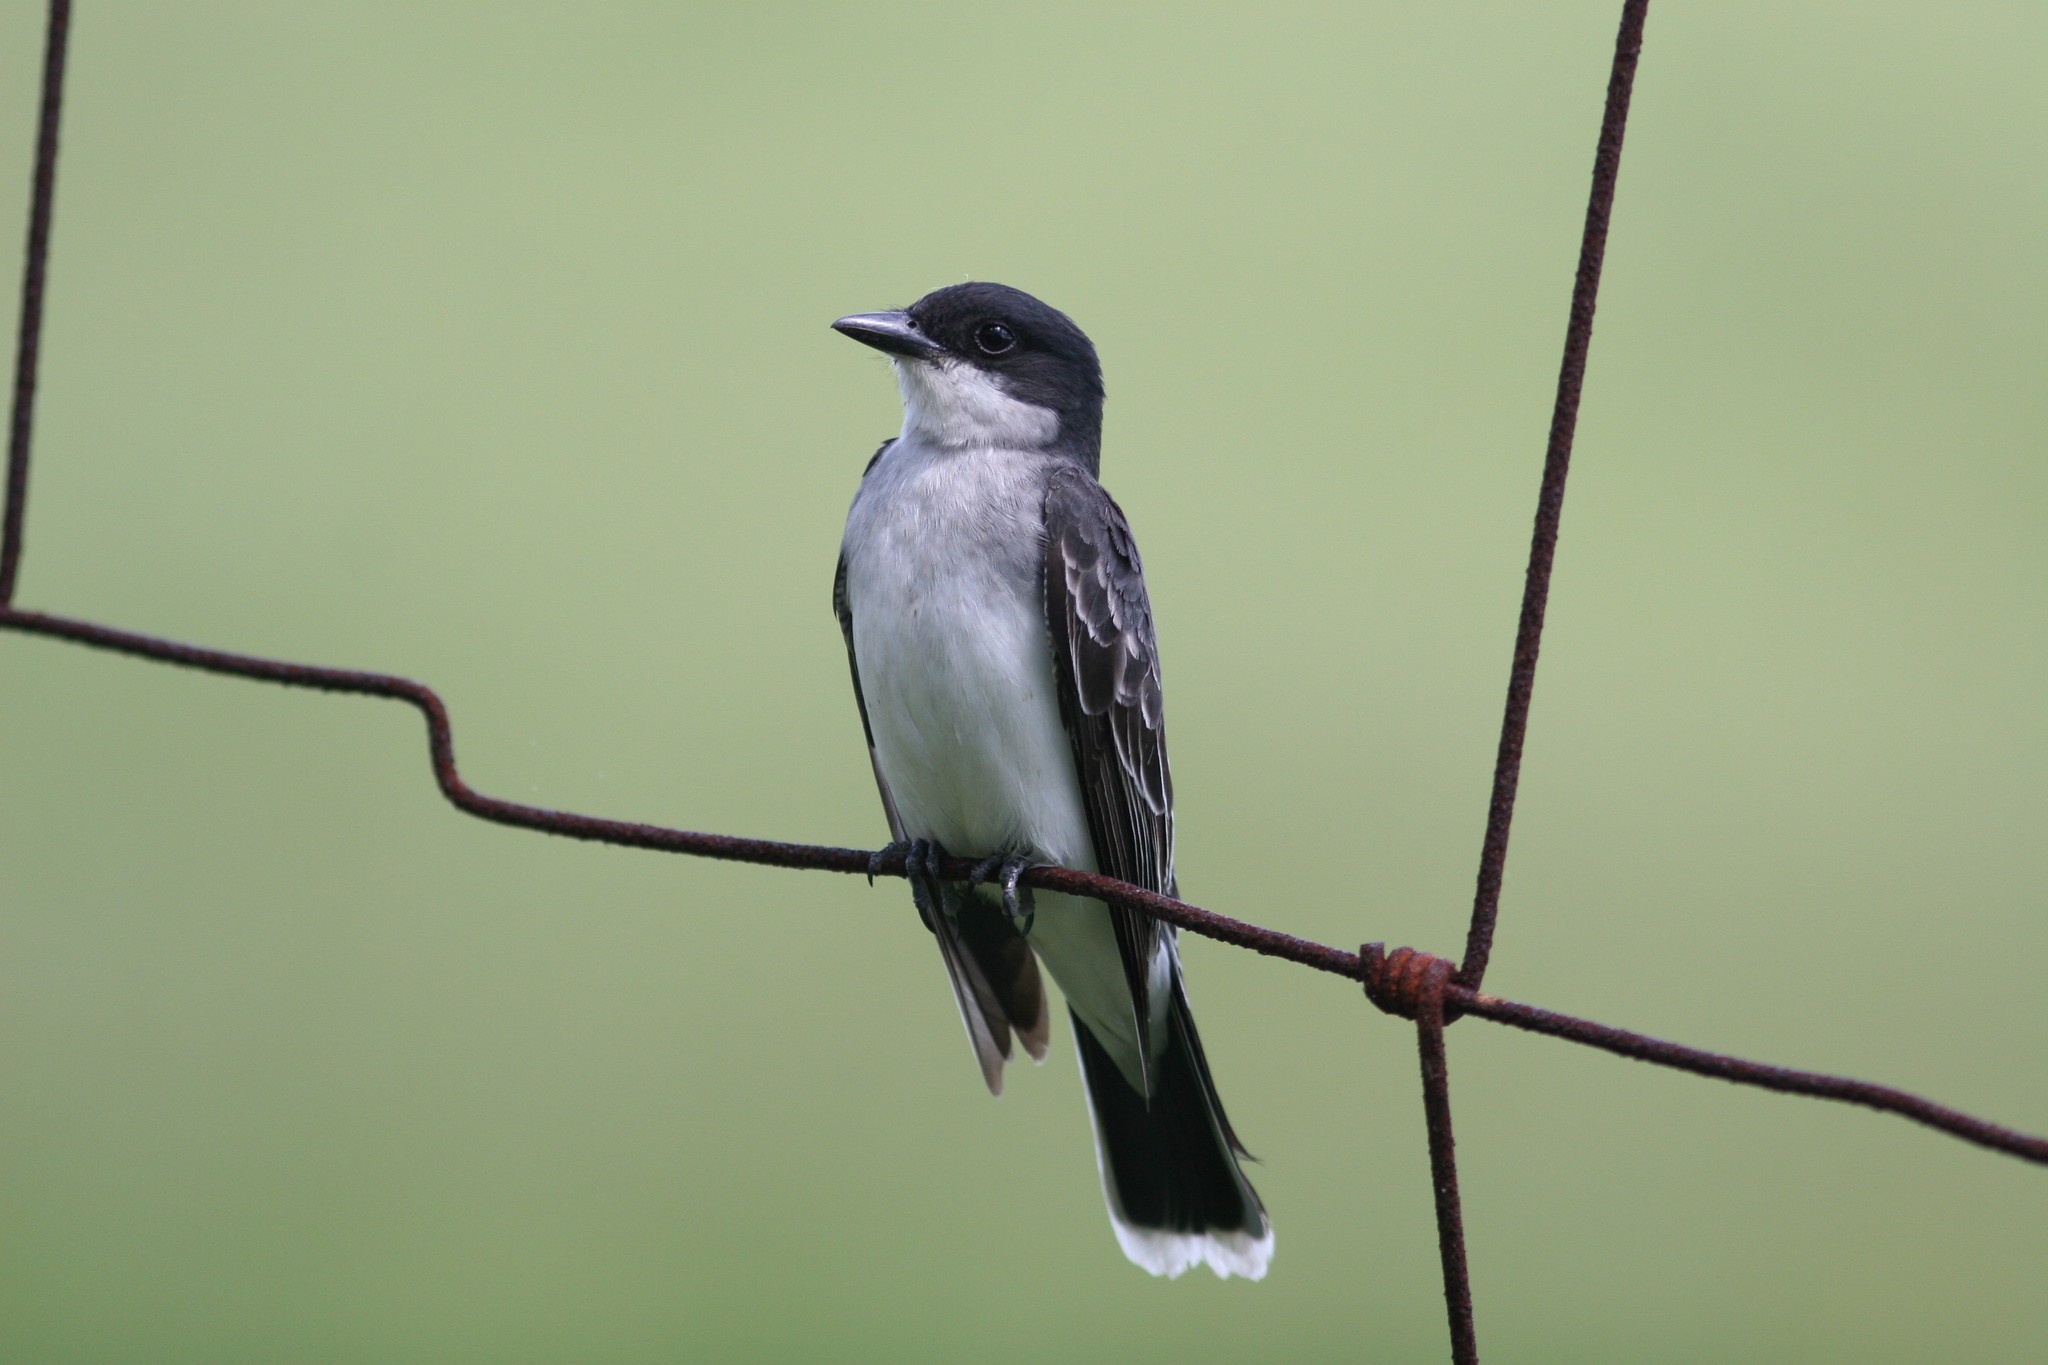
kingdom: Animalia
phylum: Chordata
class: Aves
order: Passeriformes
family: Tyrannidae
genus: Tyrannus
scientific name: Tyrannus tyrannus
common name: Eastern kingbird
